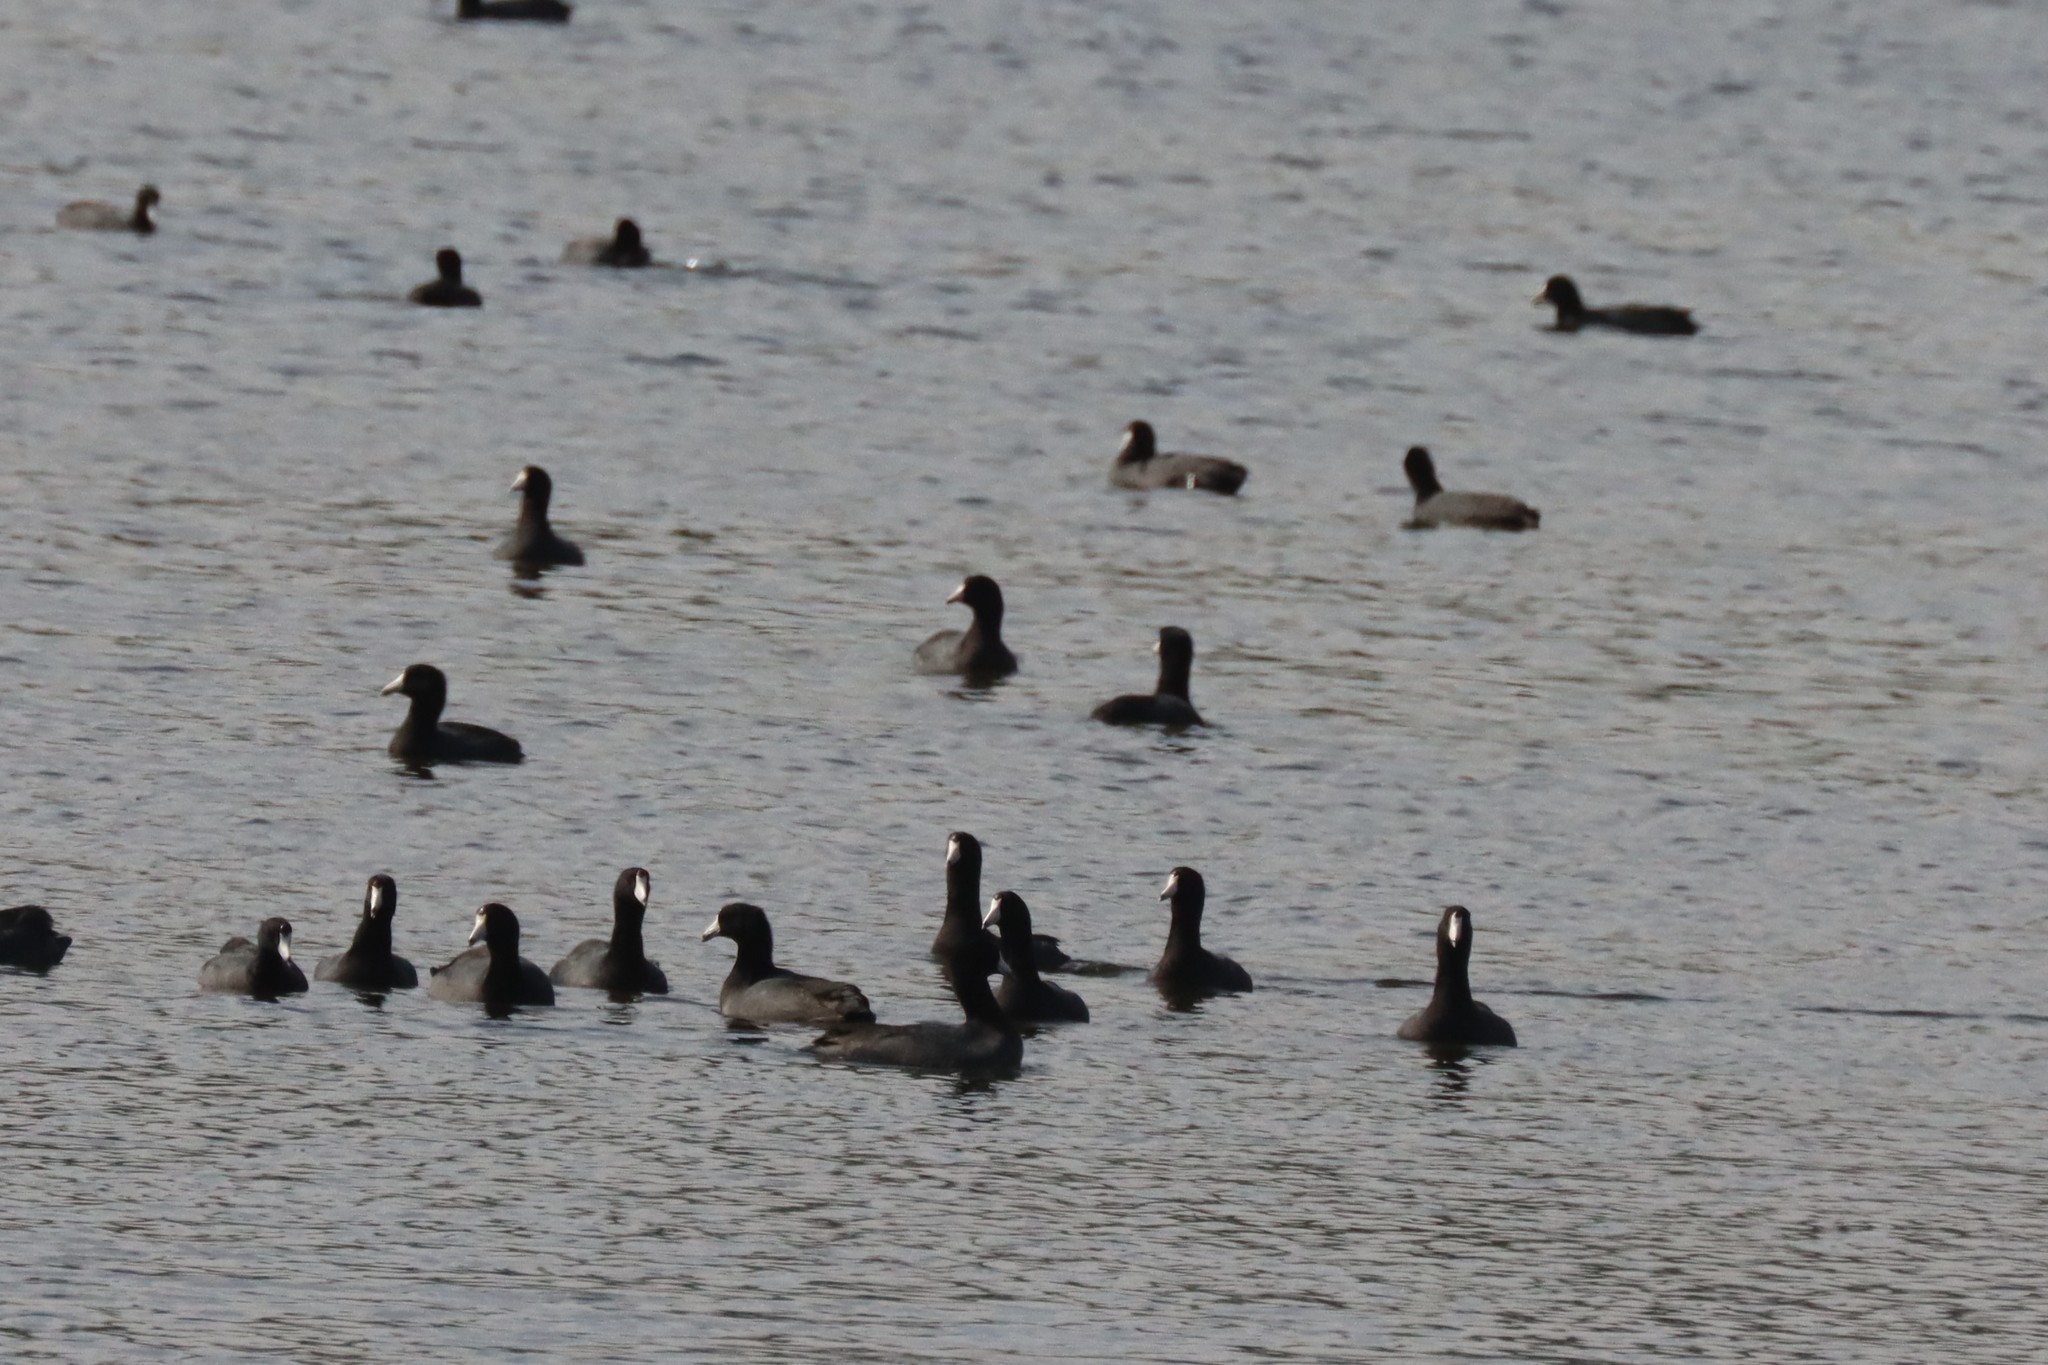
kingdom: Animalia
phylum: Chordata
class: Aves
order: Gruiformes
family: Rallidae
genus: Fulica
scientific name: Fulica americana
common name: American coot
